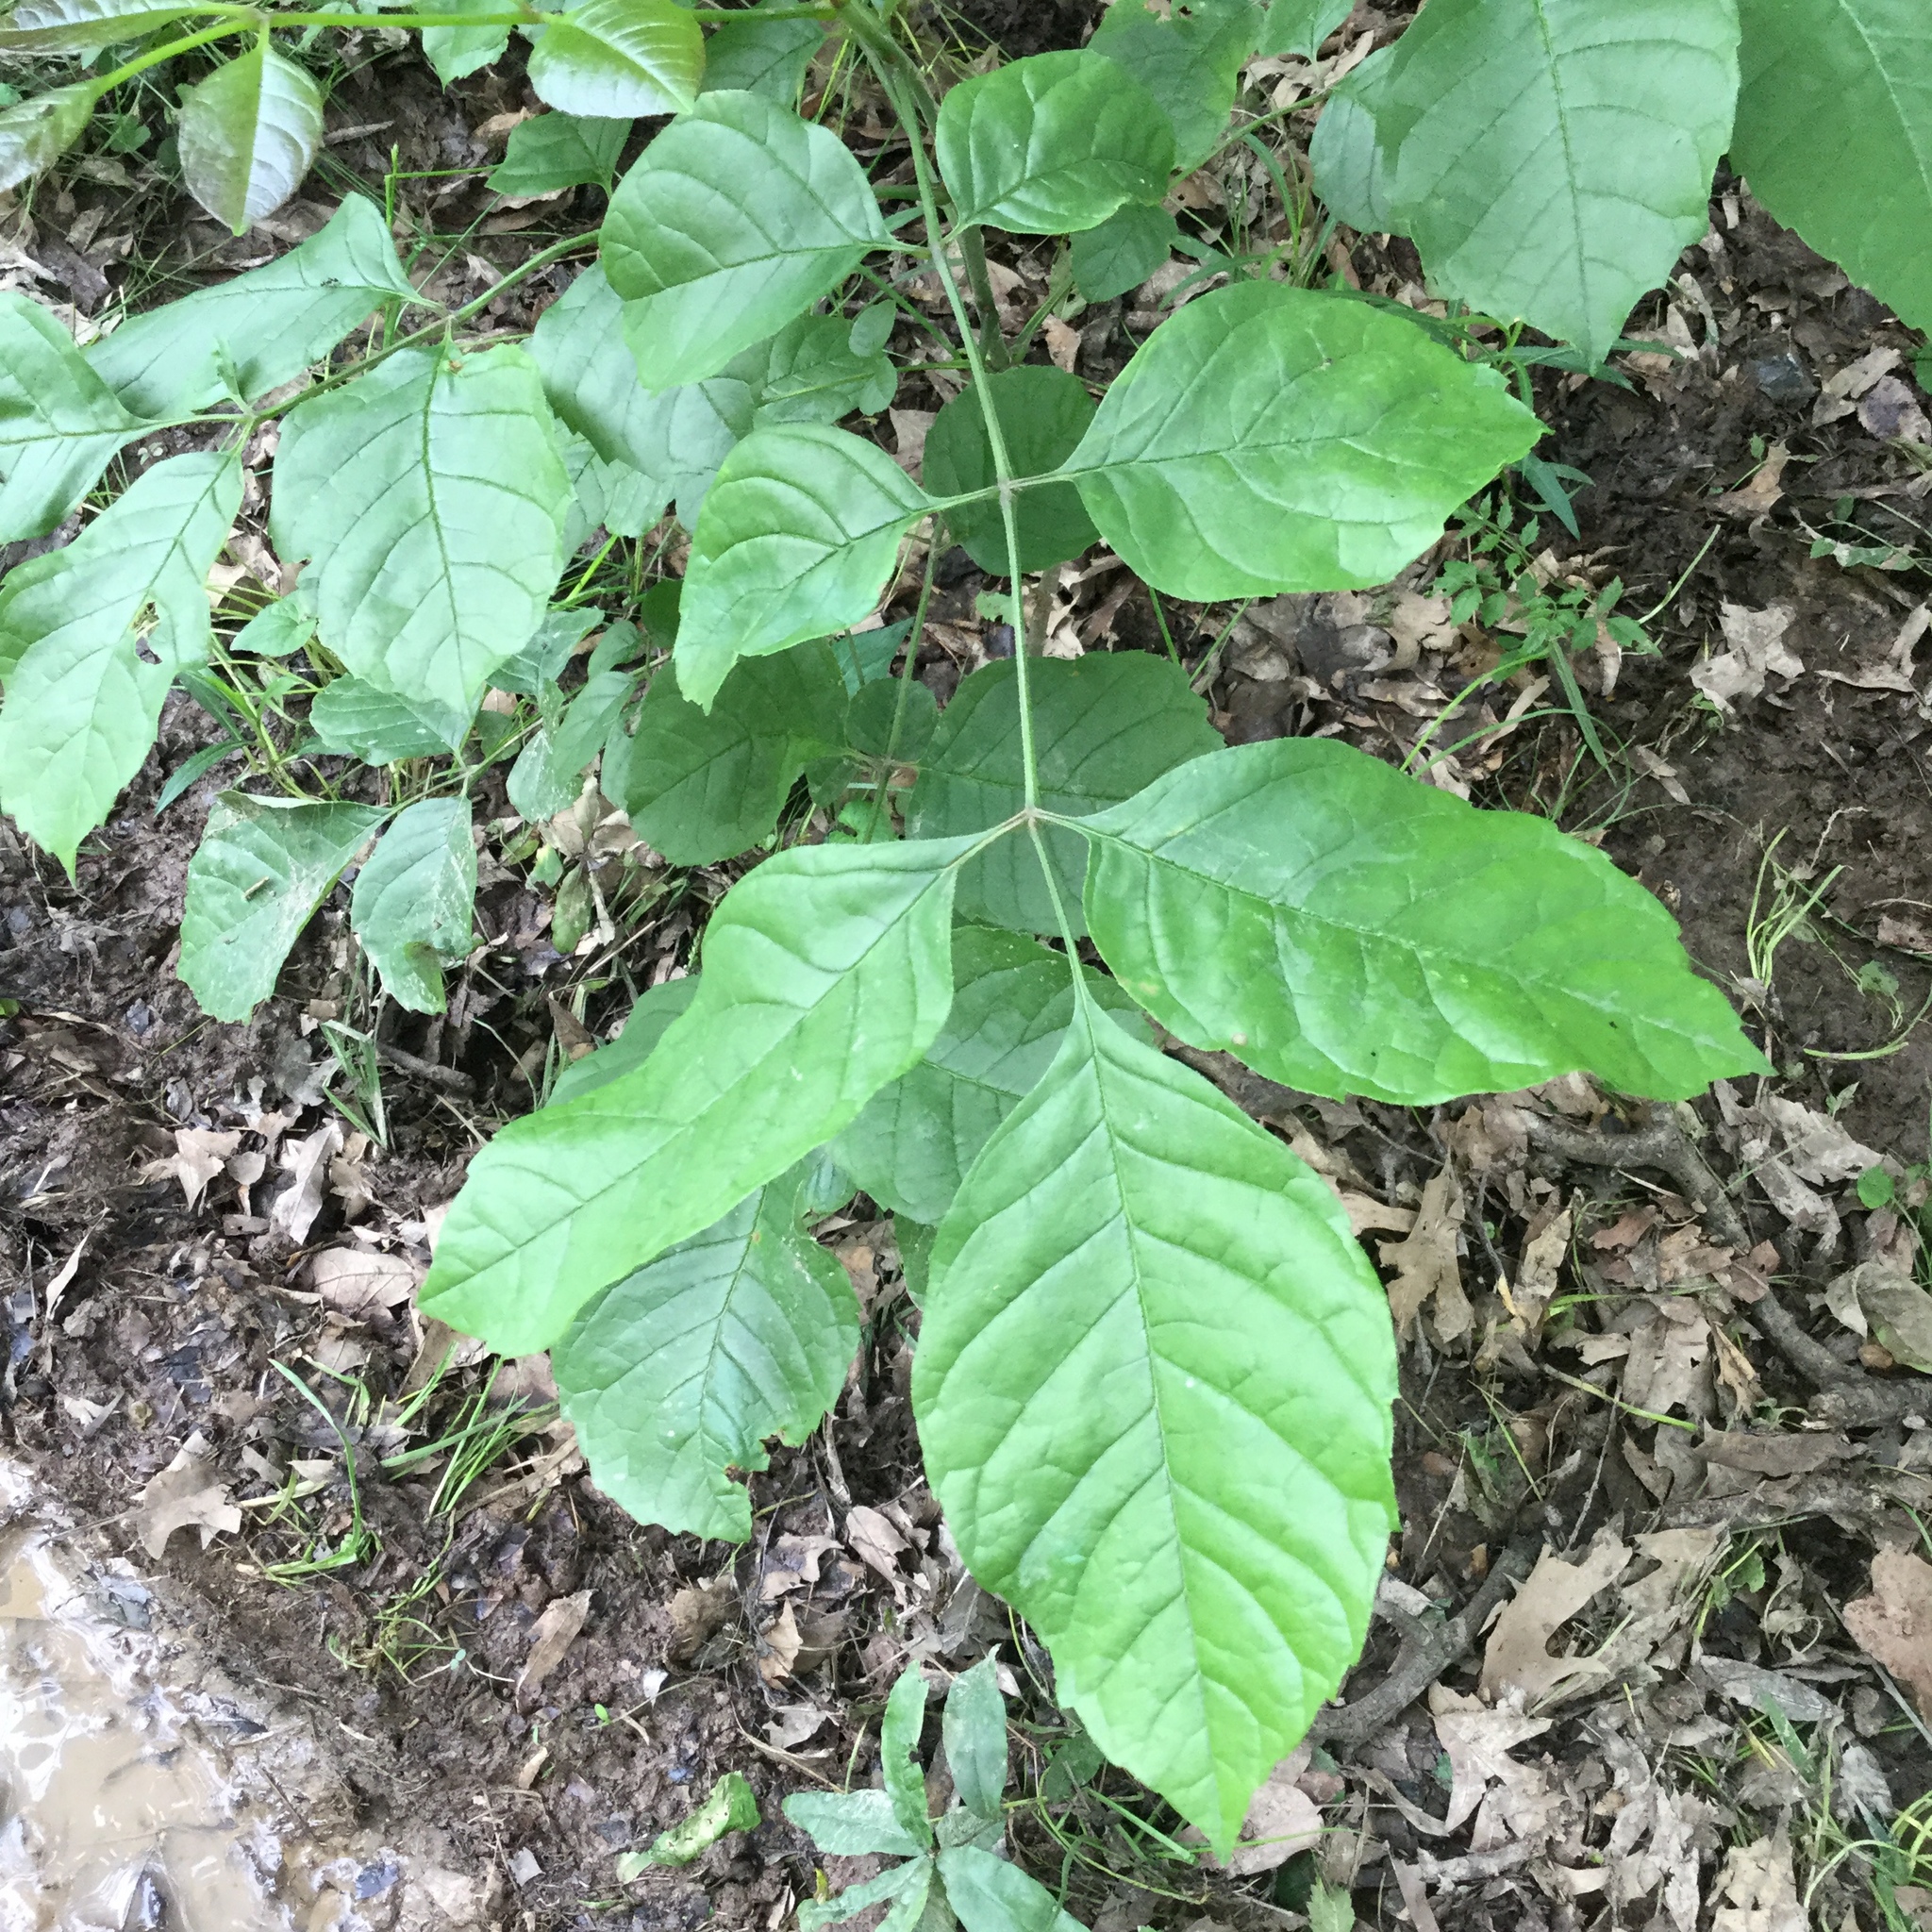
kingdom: Plantae
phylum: Tracheophyta
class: Magnoliopsida
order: Lamiales
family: Oleaceae
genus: Fraxinus
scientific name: Fraxinus pennsylvanica
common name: Green ash
